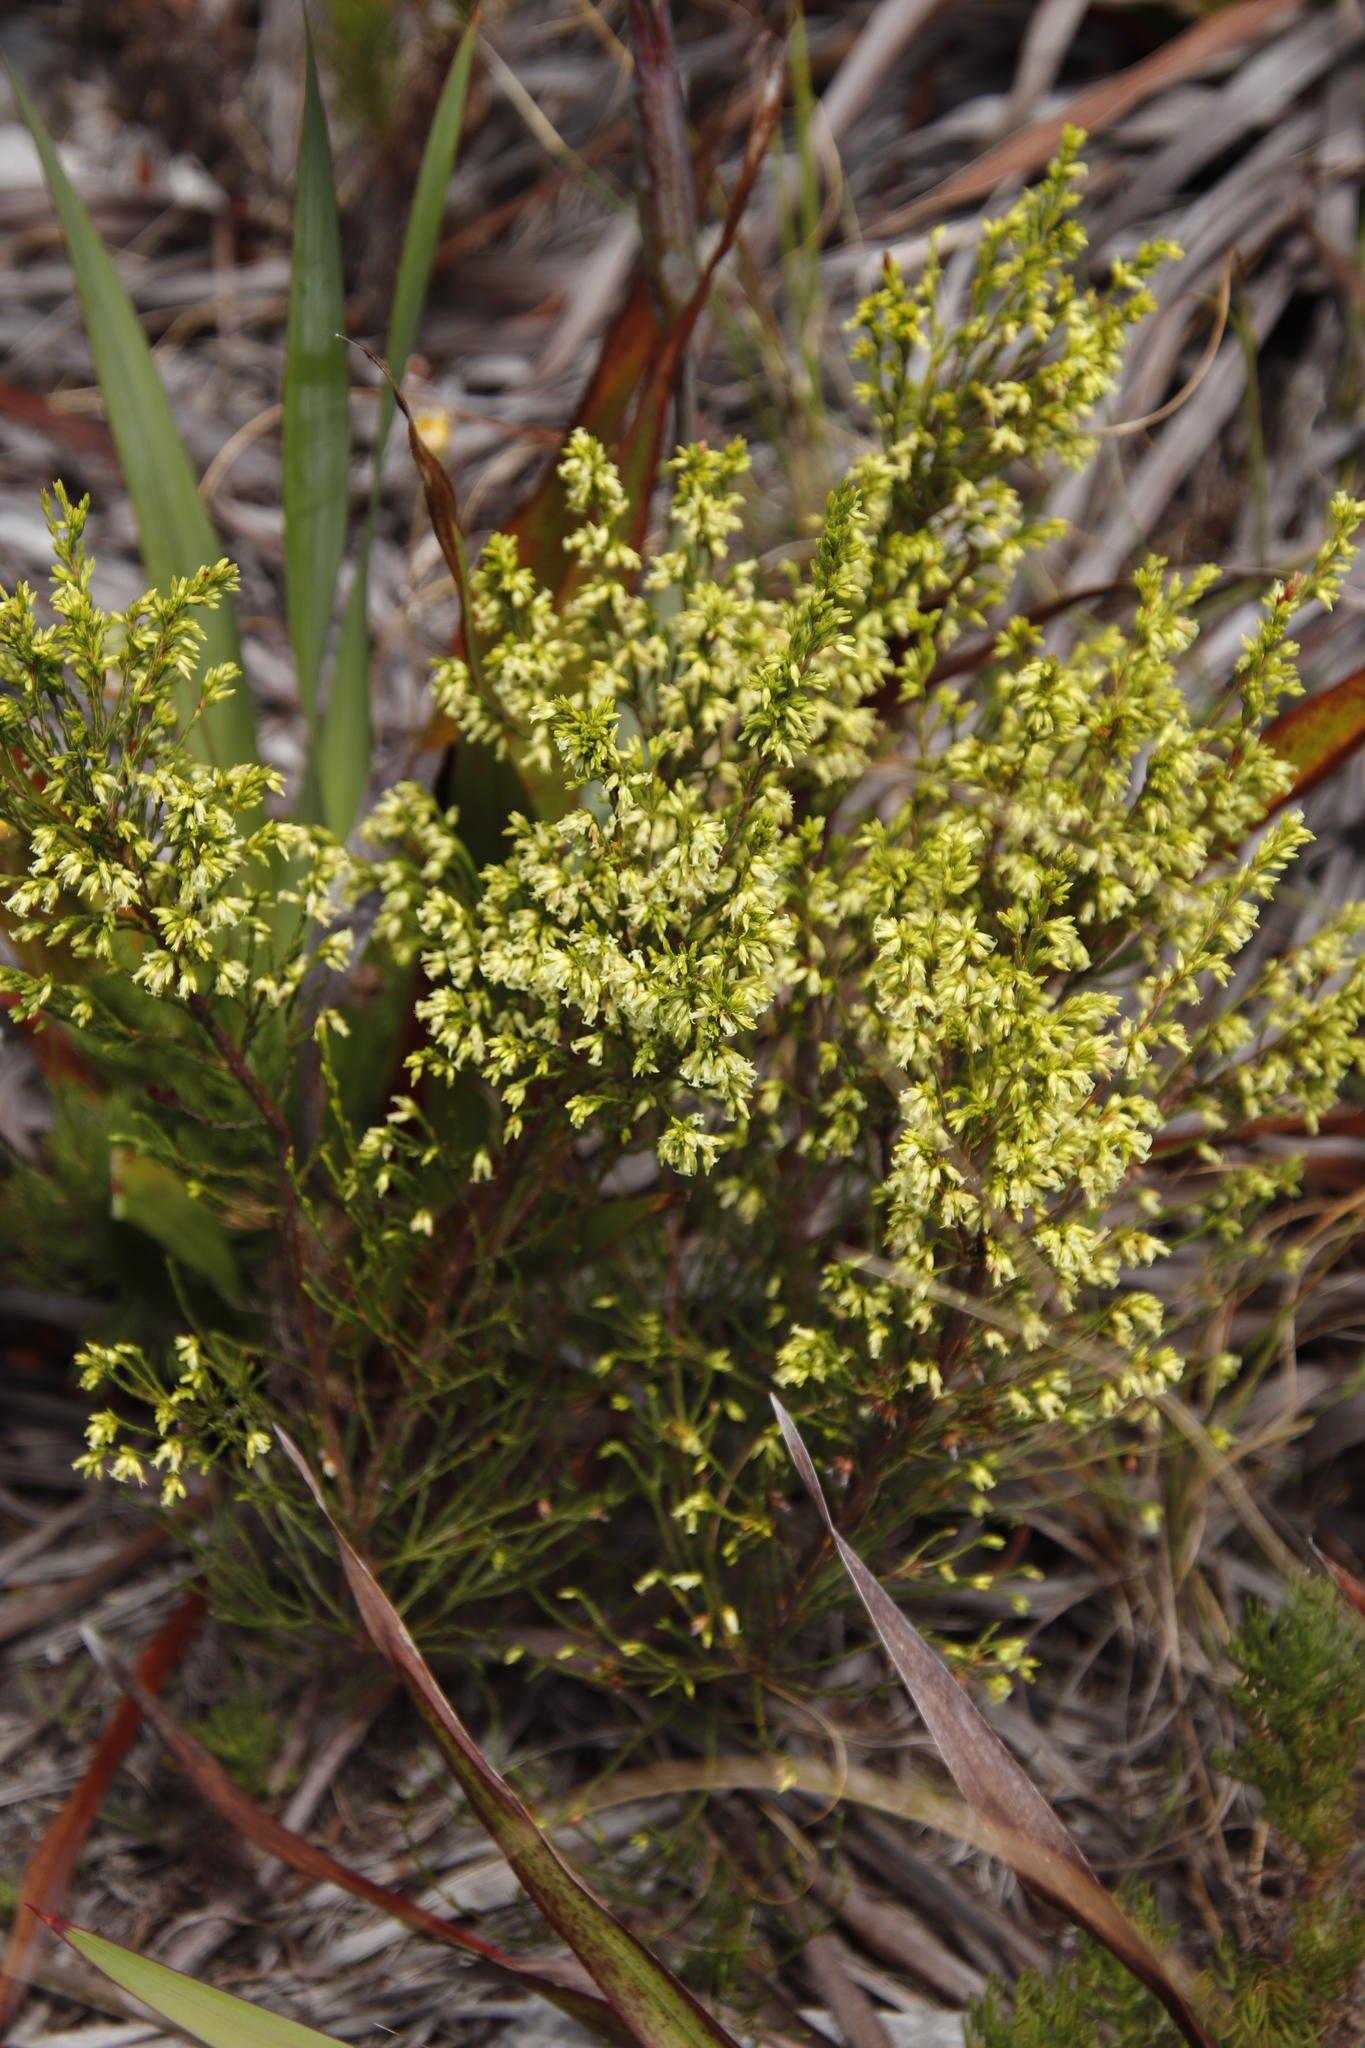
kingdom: Plantae
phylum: Tracheophyta
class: Magnoliopsida
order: Ericales
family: Ericaceae
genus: Erica
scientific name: Erica lutea
